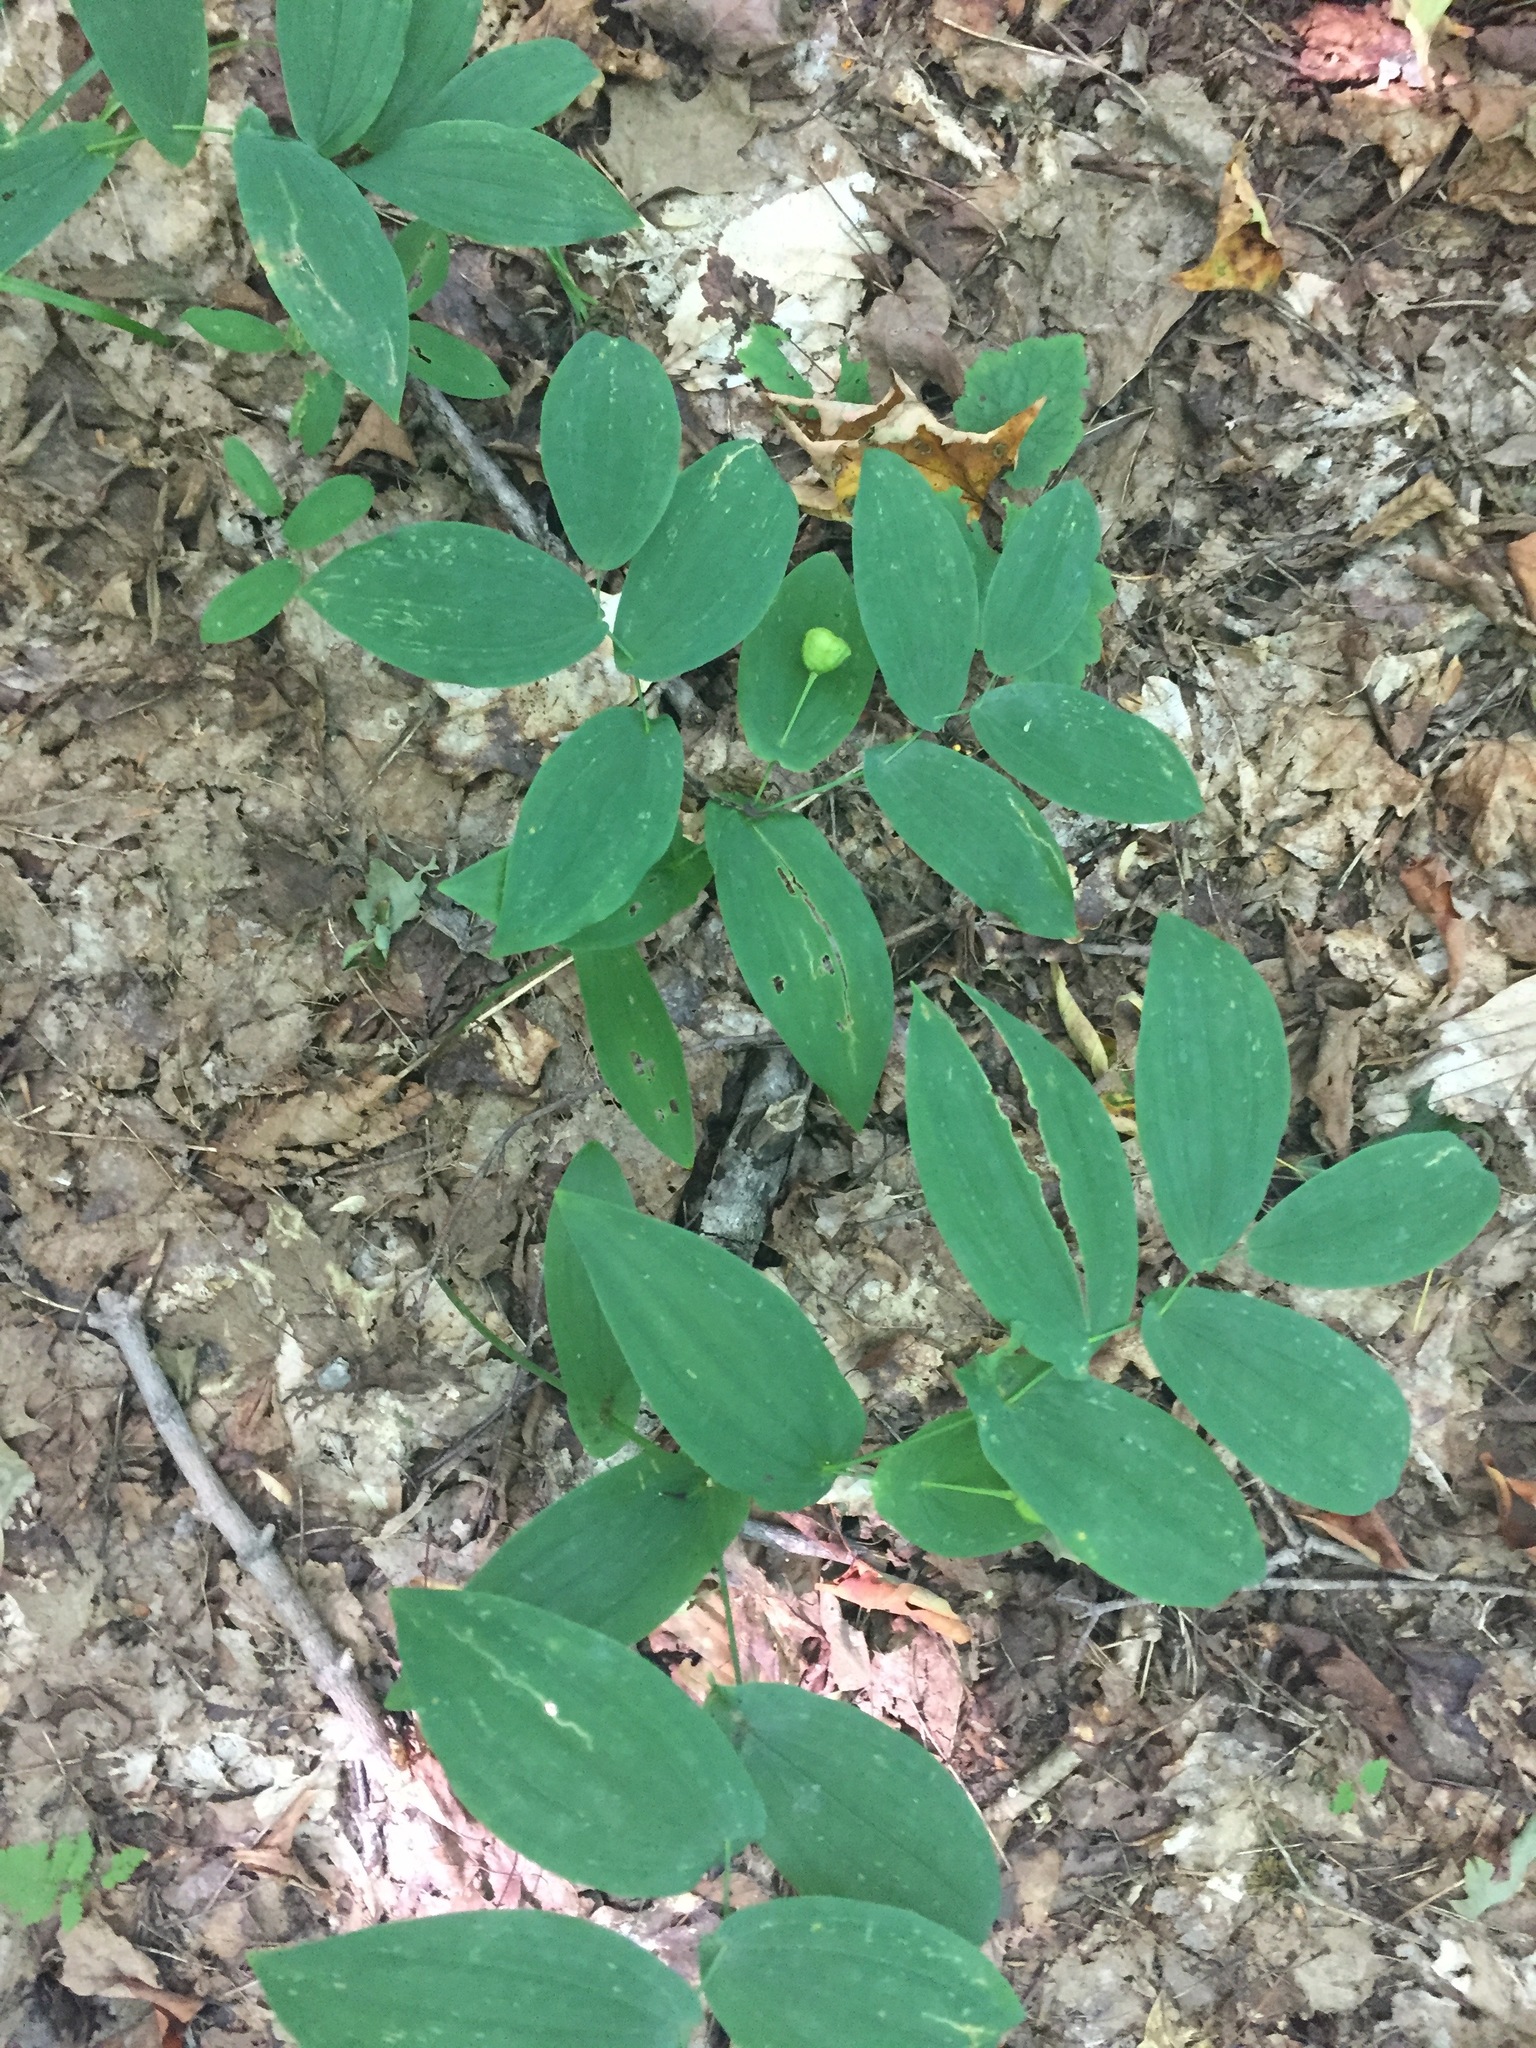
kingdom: Plantae
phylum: Tracheophyta
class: Liliopsida
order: Liliales
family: Colchicaceae
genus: Uvularia
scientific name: Uvularia grandiflora
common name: Bellwort
